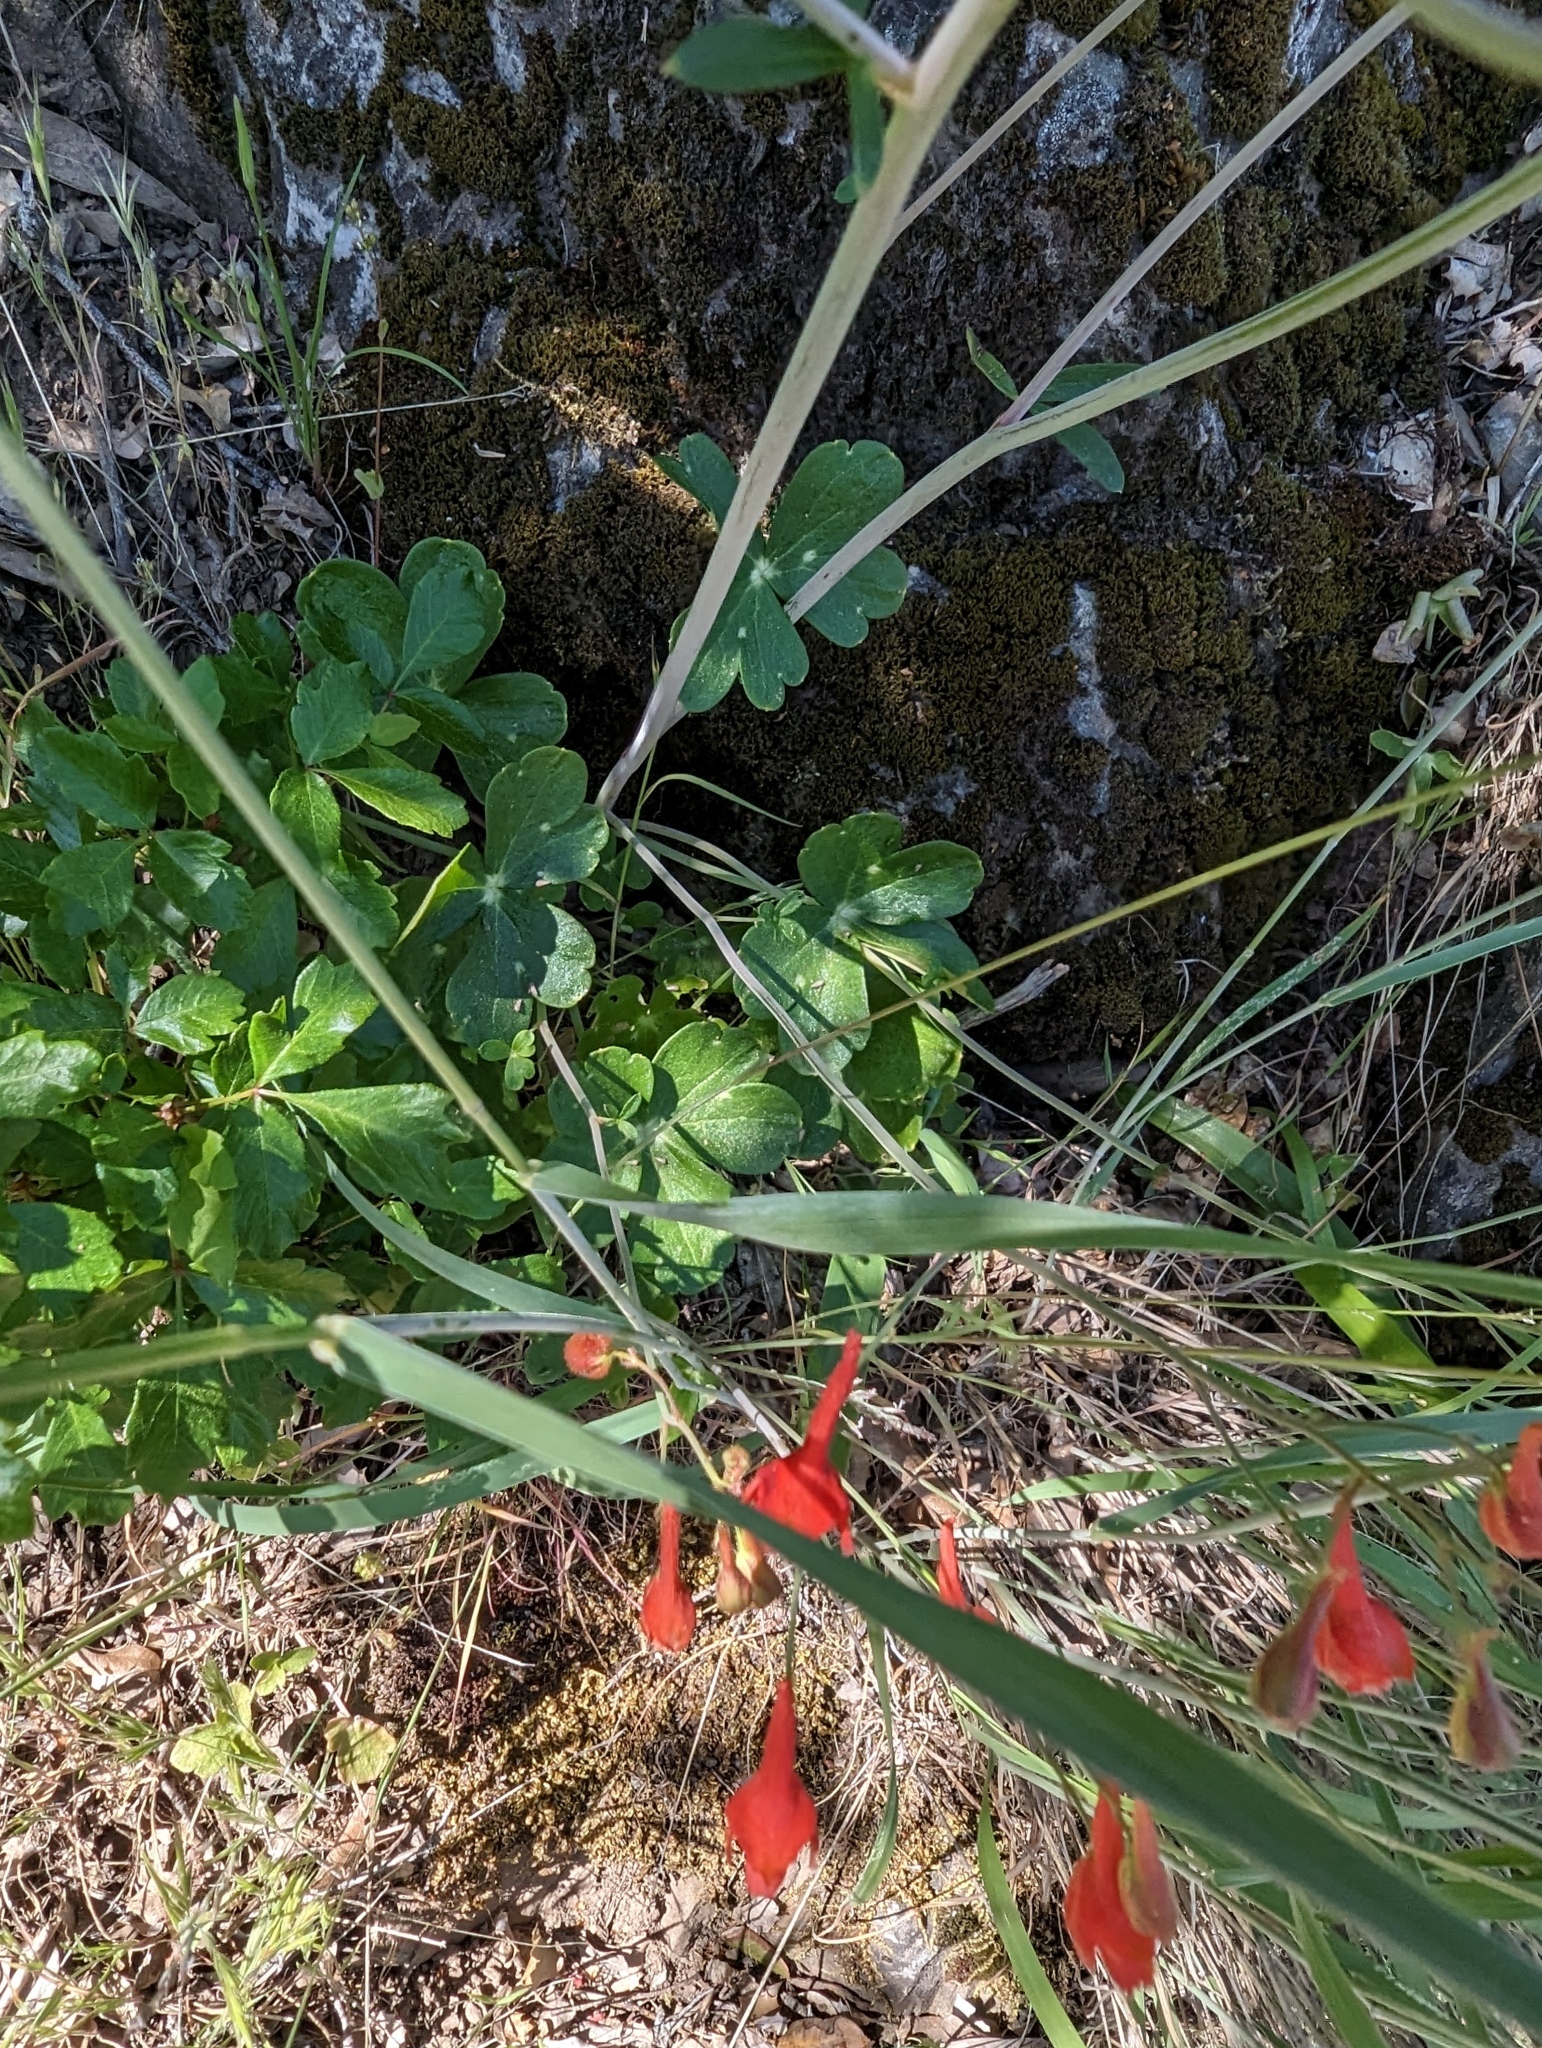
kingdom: Plantae
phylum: Tracheophyta
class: Magnoliopsida
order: Ranunculales
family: Ranunculaceae
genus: Delphinium
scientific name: Delphinium nudicaule
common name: Red larkspur
